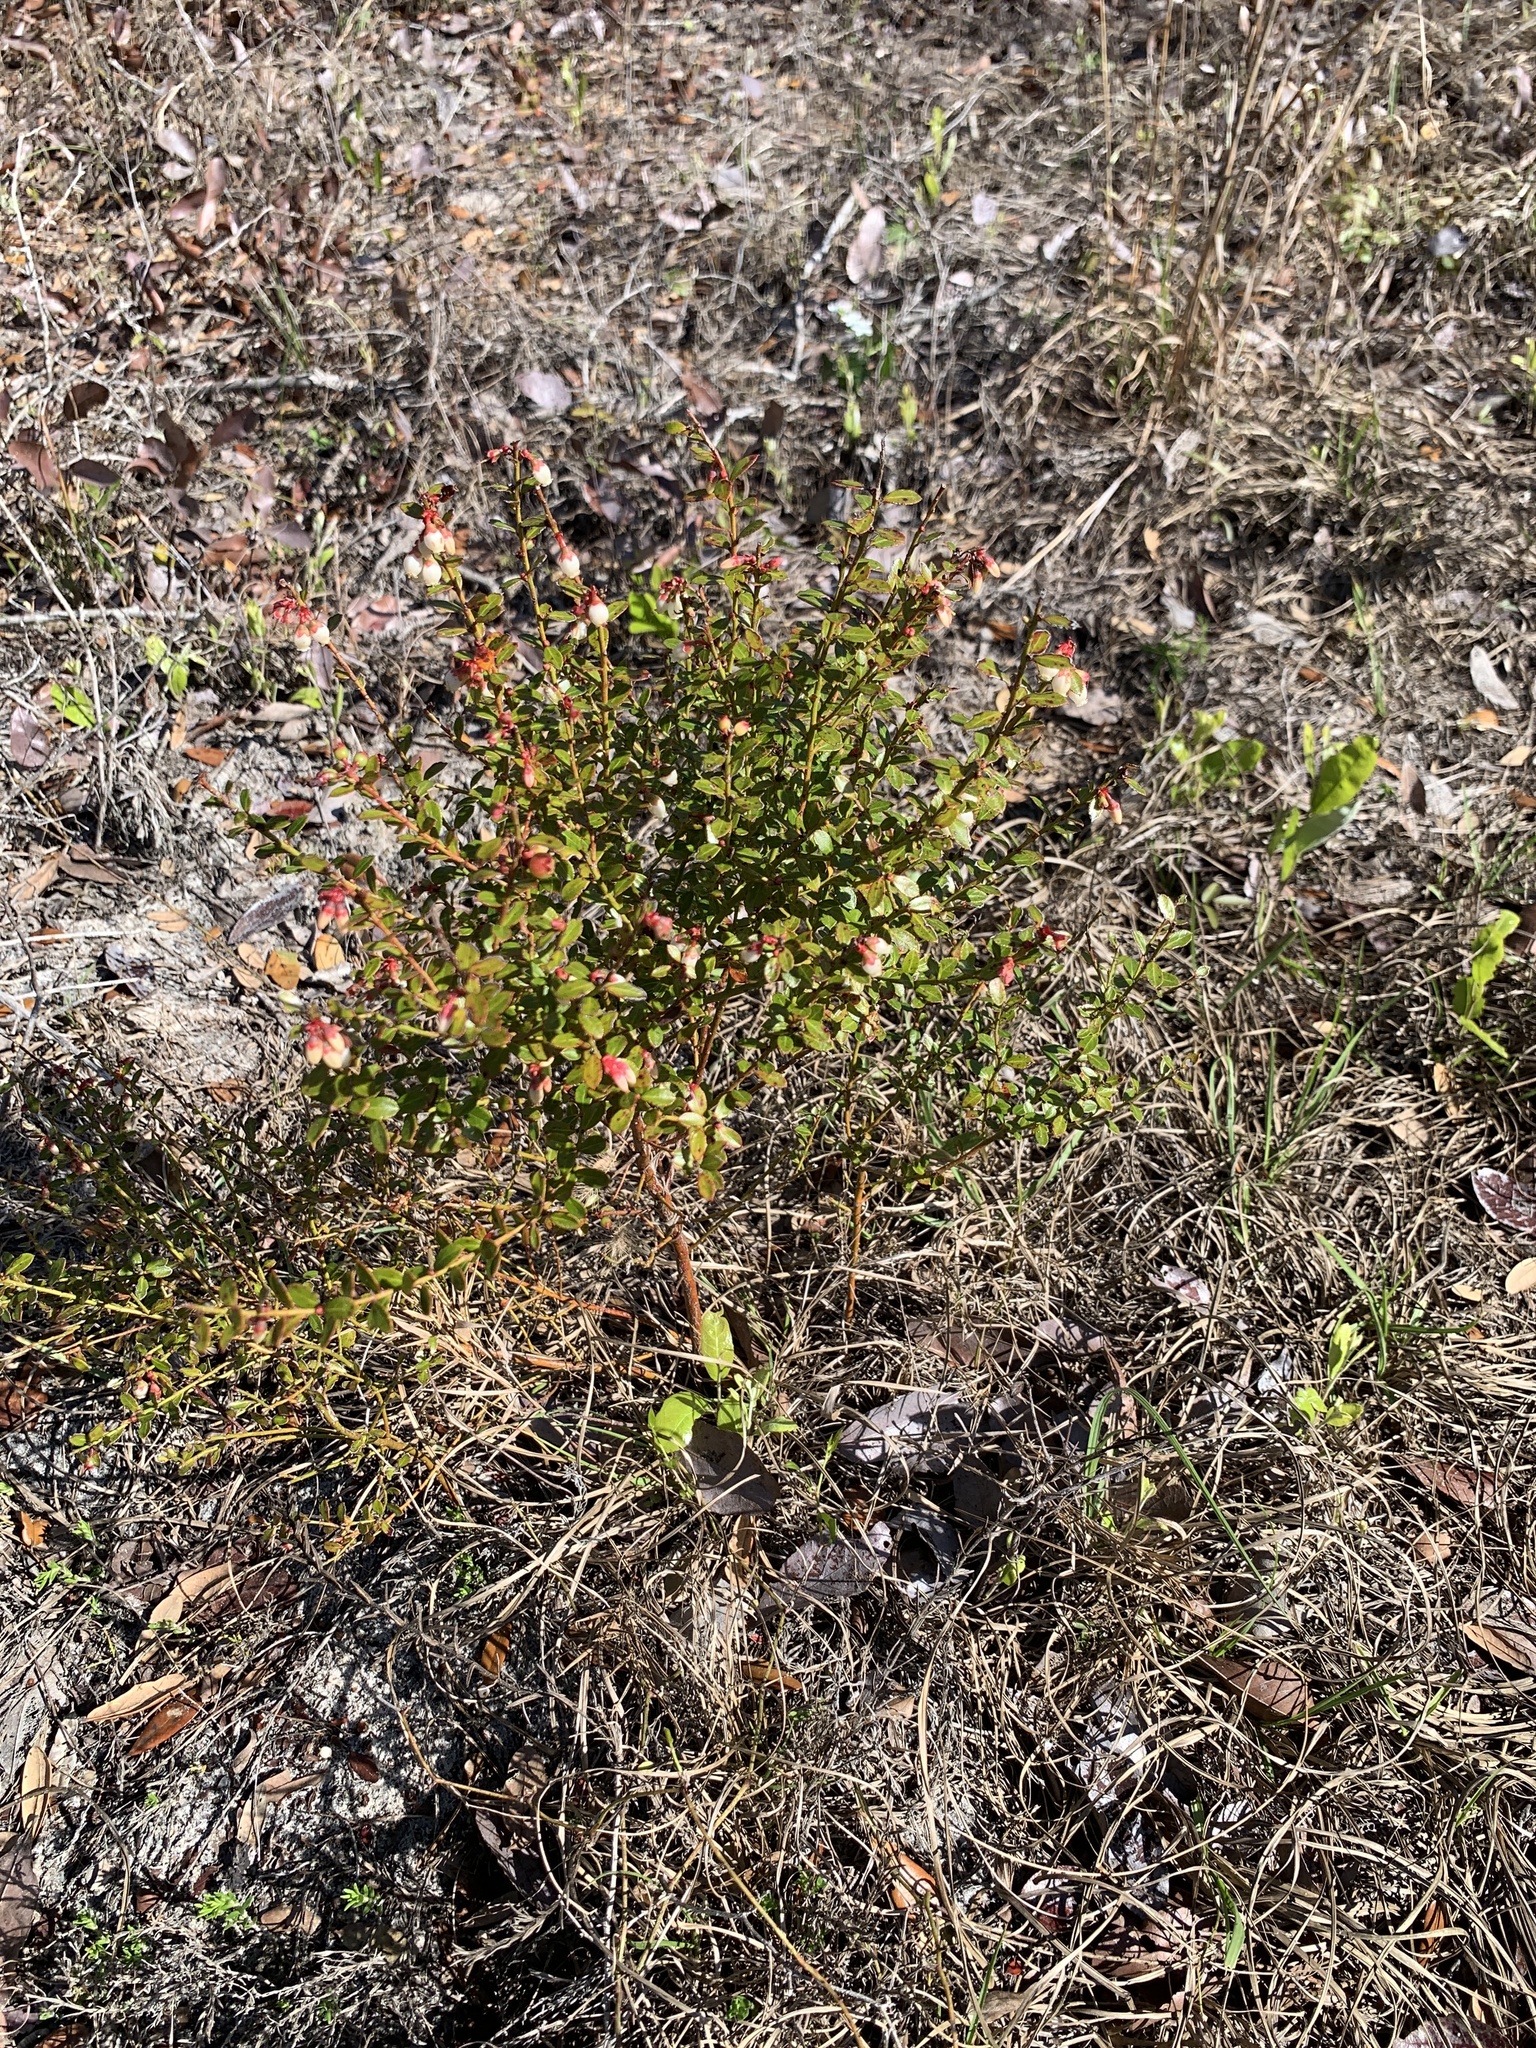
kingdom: Plantae
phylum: Tracheophyta
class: Magnoliopsida
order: Ericales
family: Ericaceae
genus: Vaccinium
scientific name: Vaccinium myrsinites
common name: Evergreen blueberry
